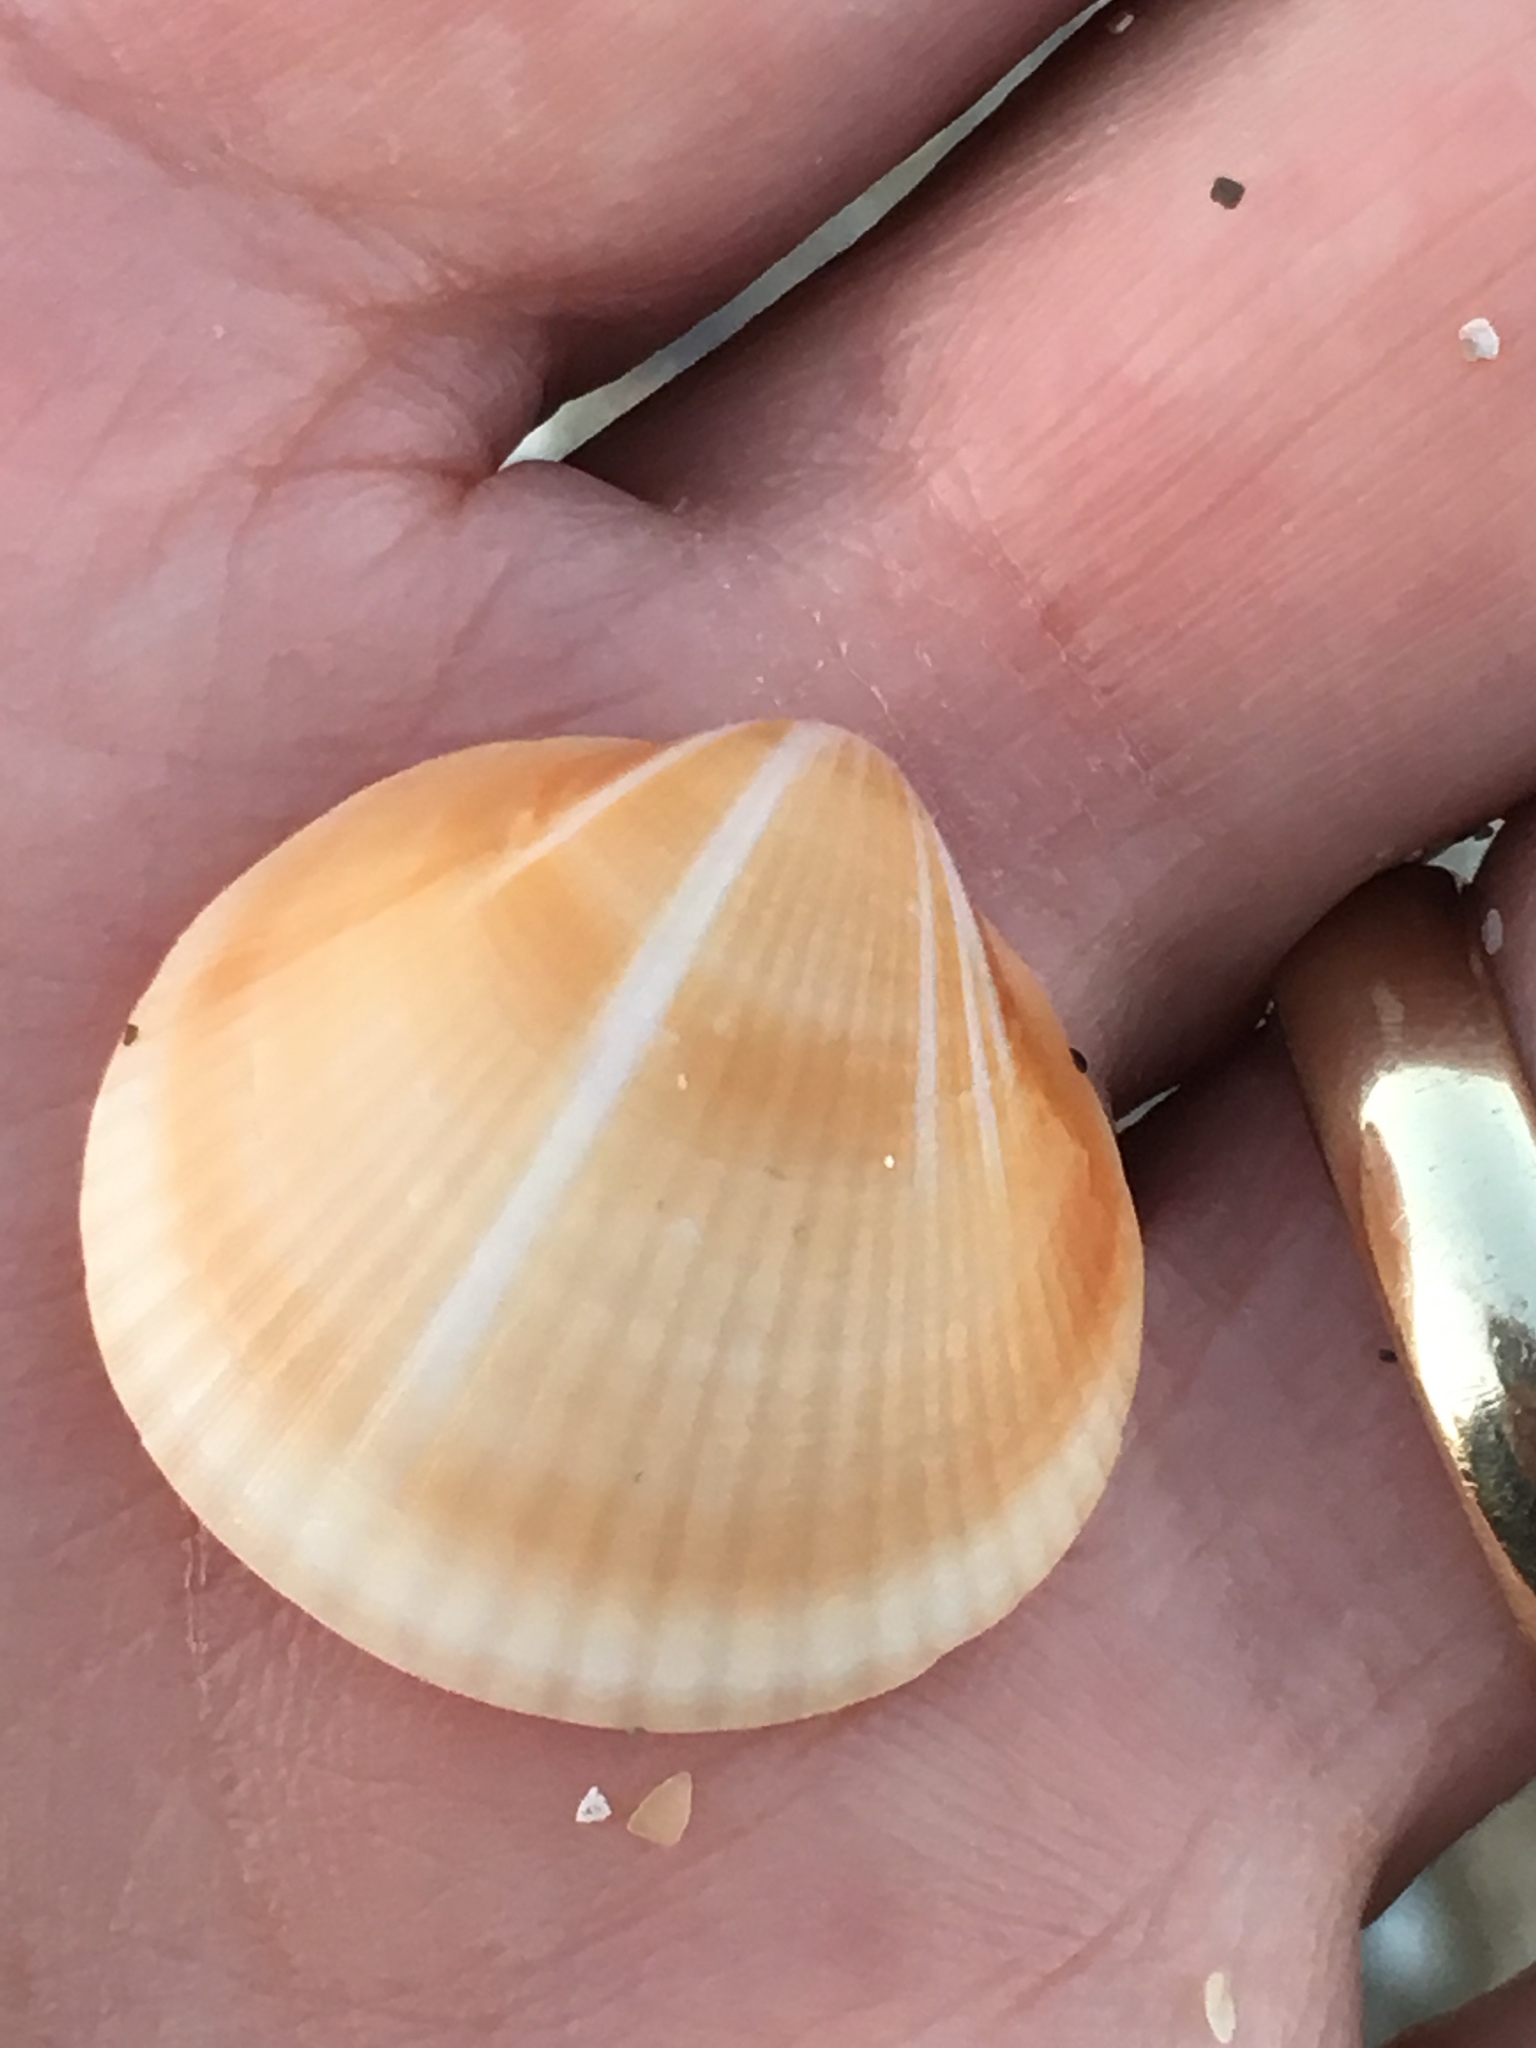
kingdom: Animalia
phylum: Mollusca
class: Bivalvia
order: Arcida
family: Glycymerididae
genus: Glycymeris
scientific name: Glycymeris spectralis
